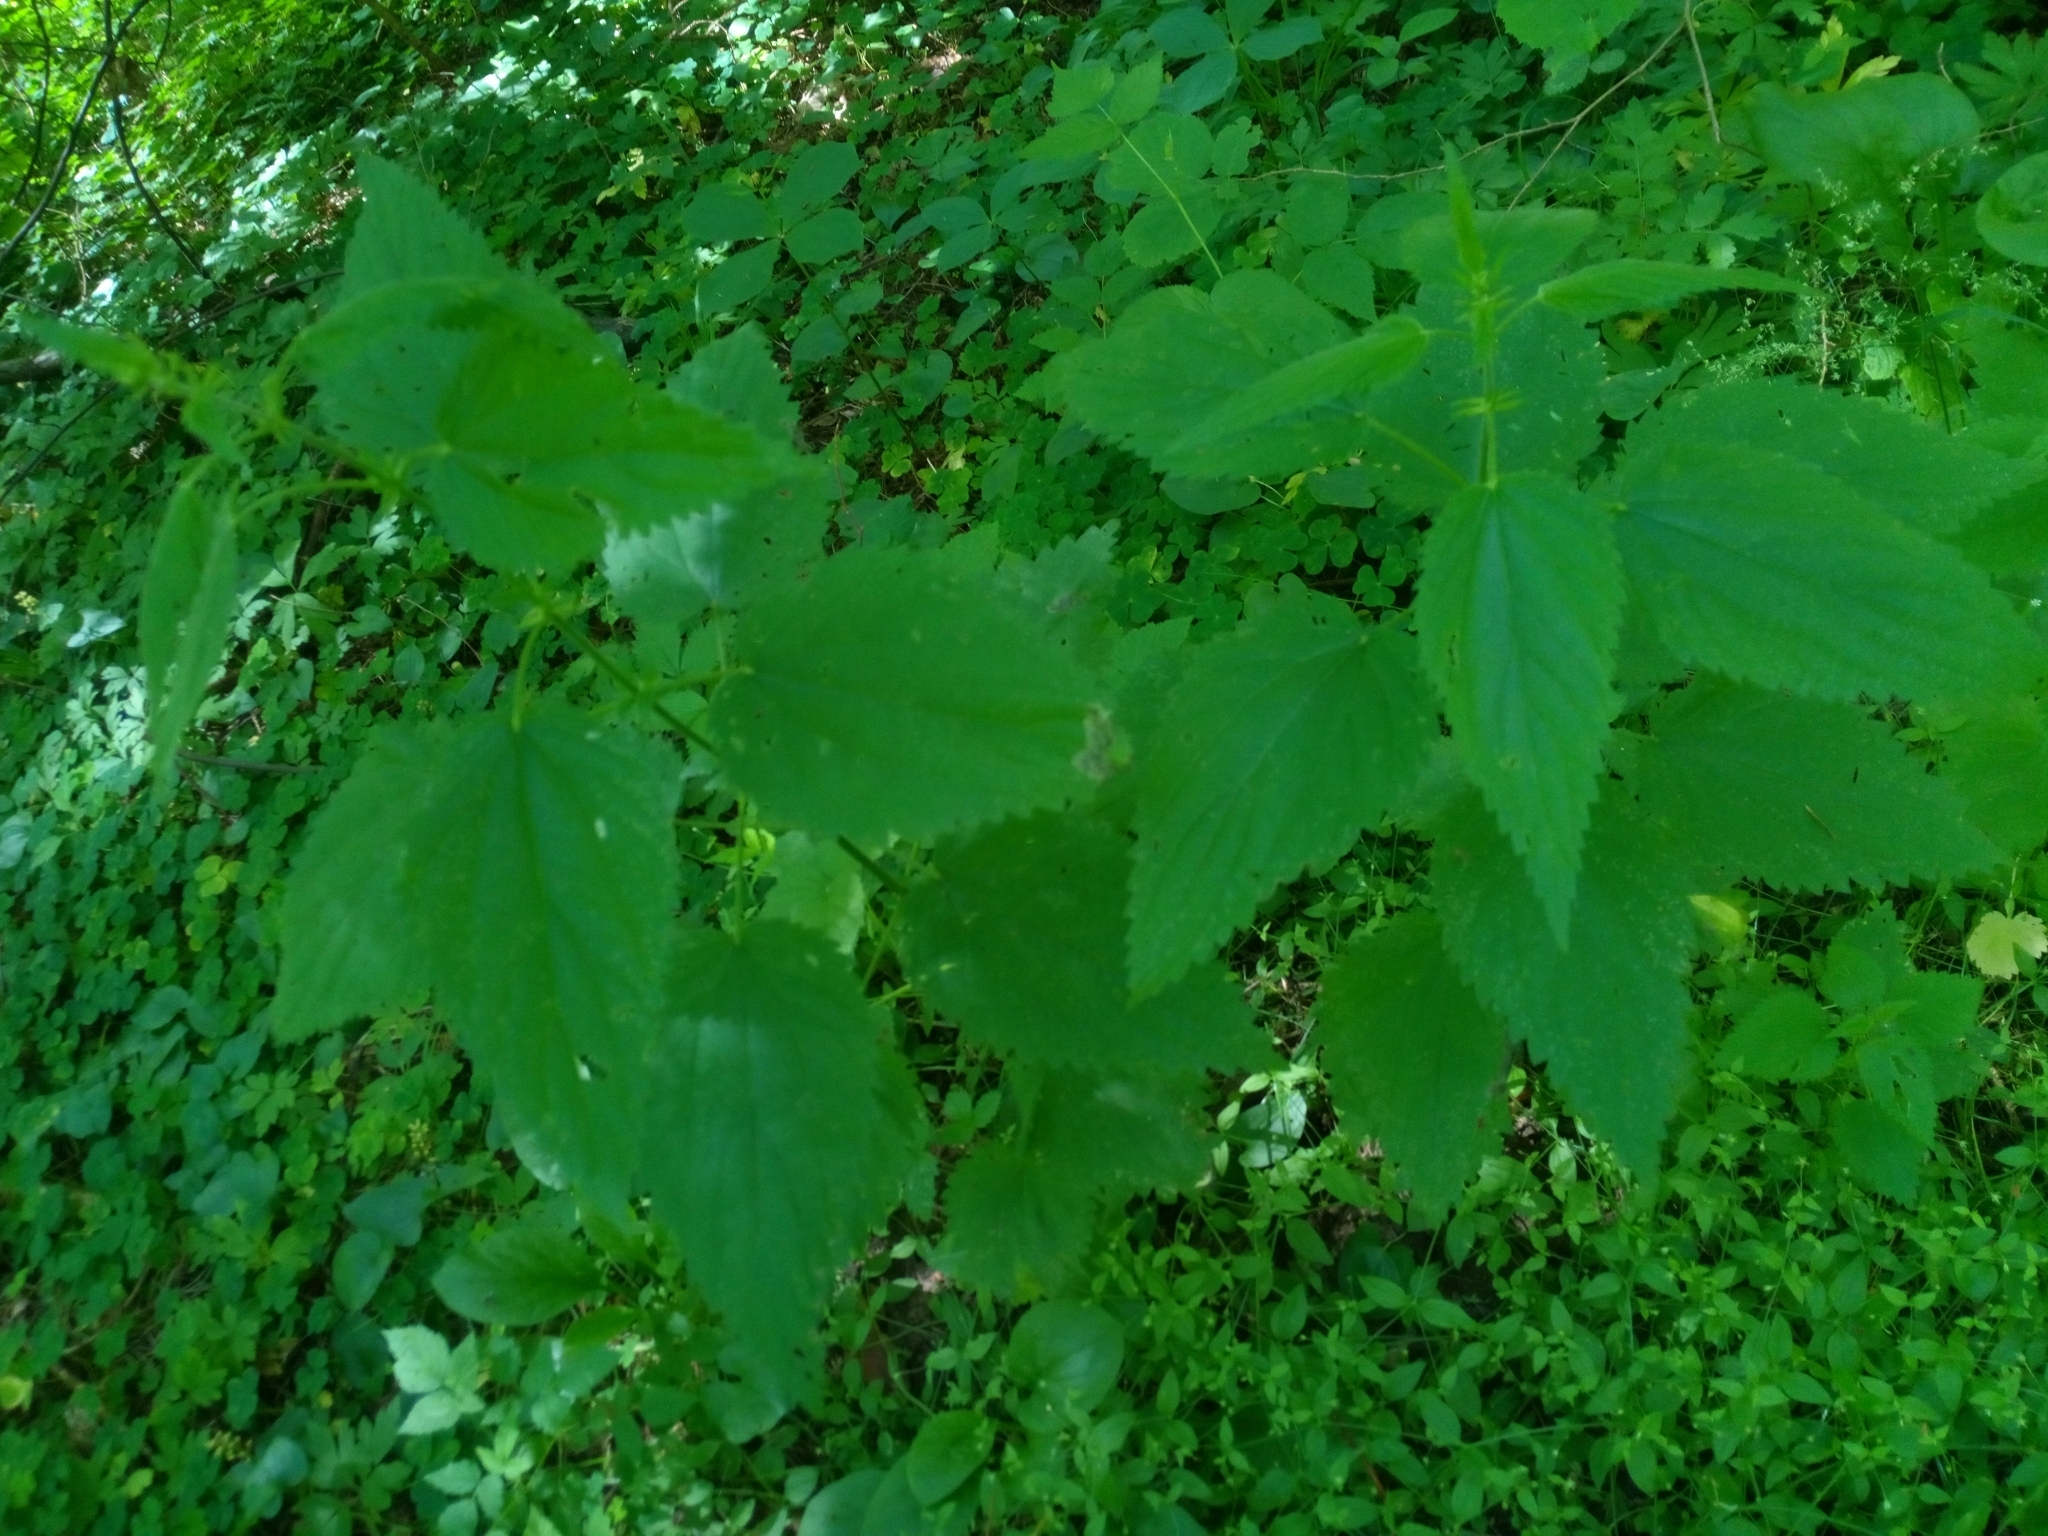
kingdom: Plantae
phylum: Tracheophyta
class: Magnoliopsida
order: Rosales
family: Urticaceae
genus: Urtica
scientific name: Urtica dioica
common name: Common nettle
